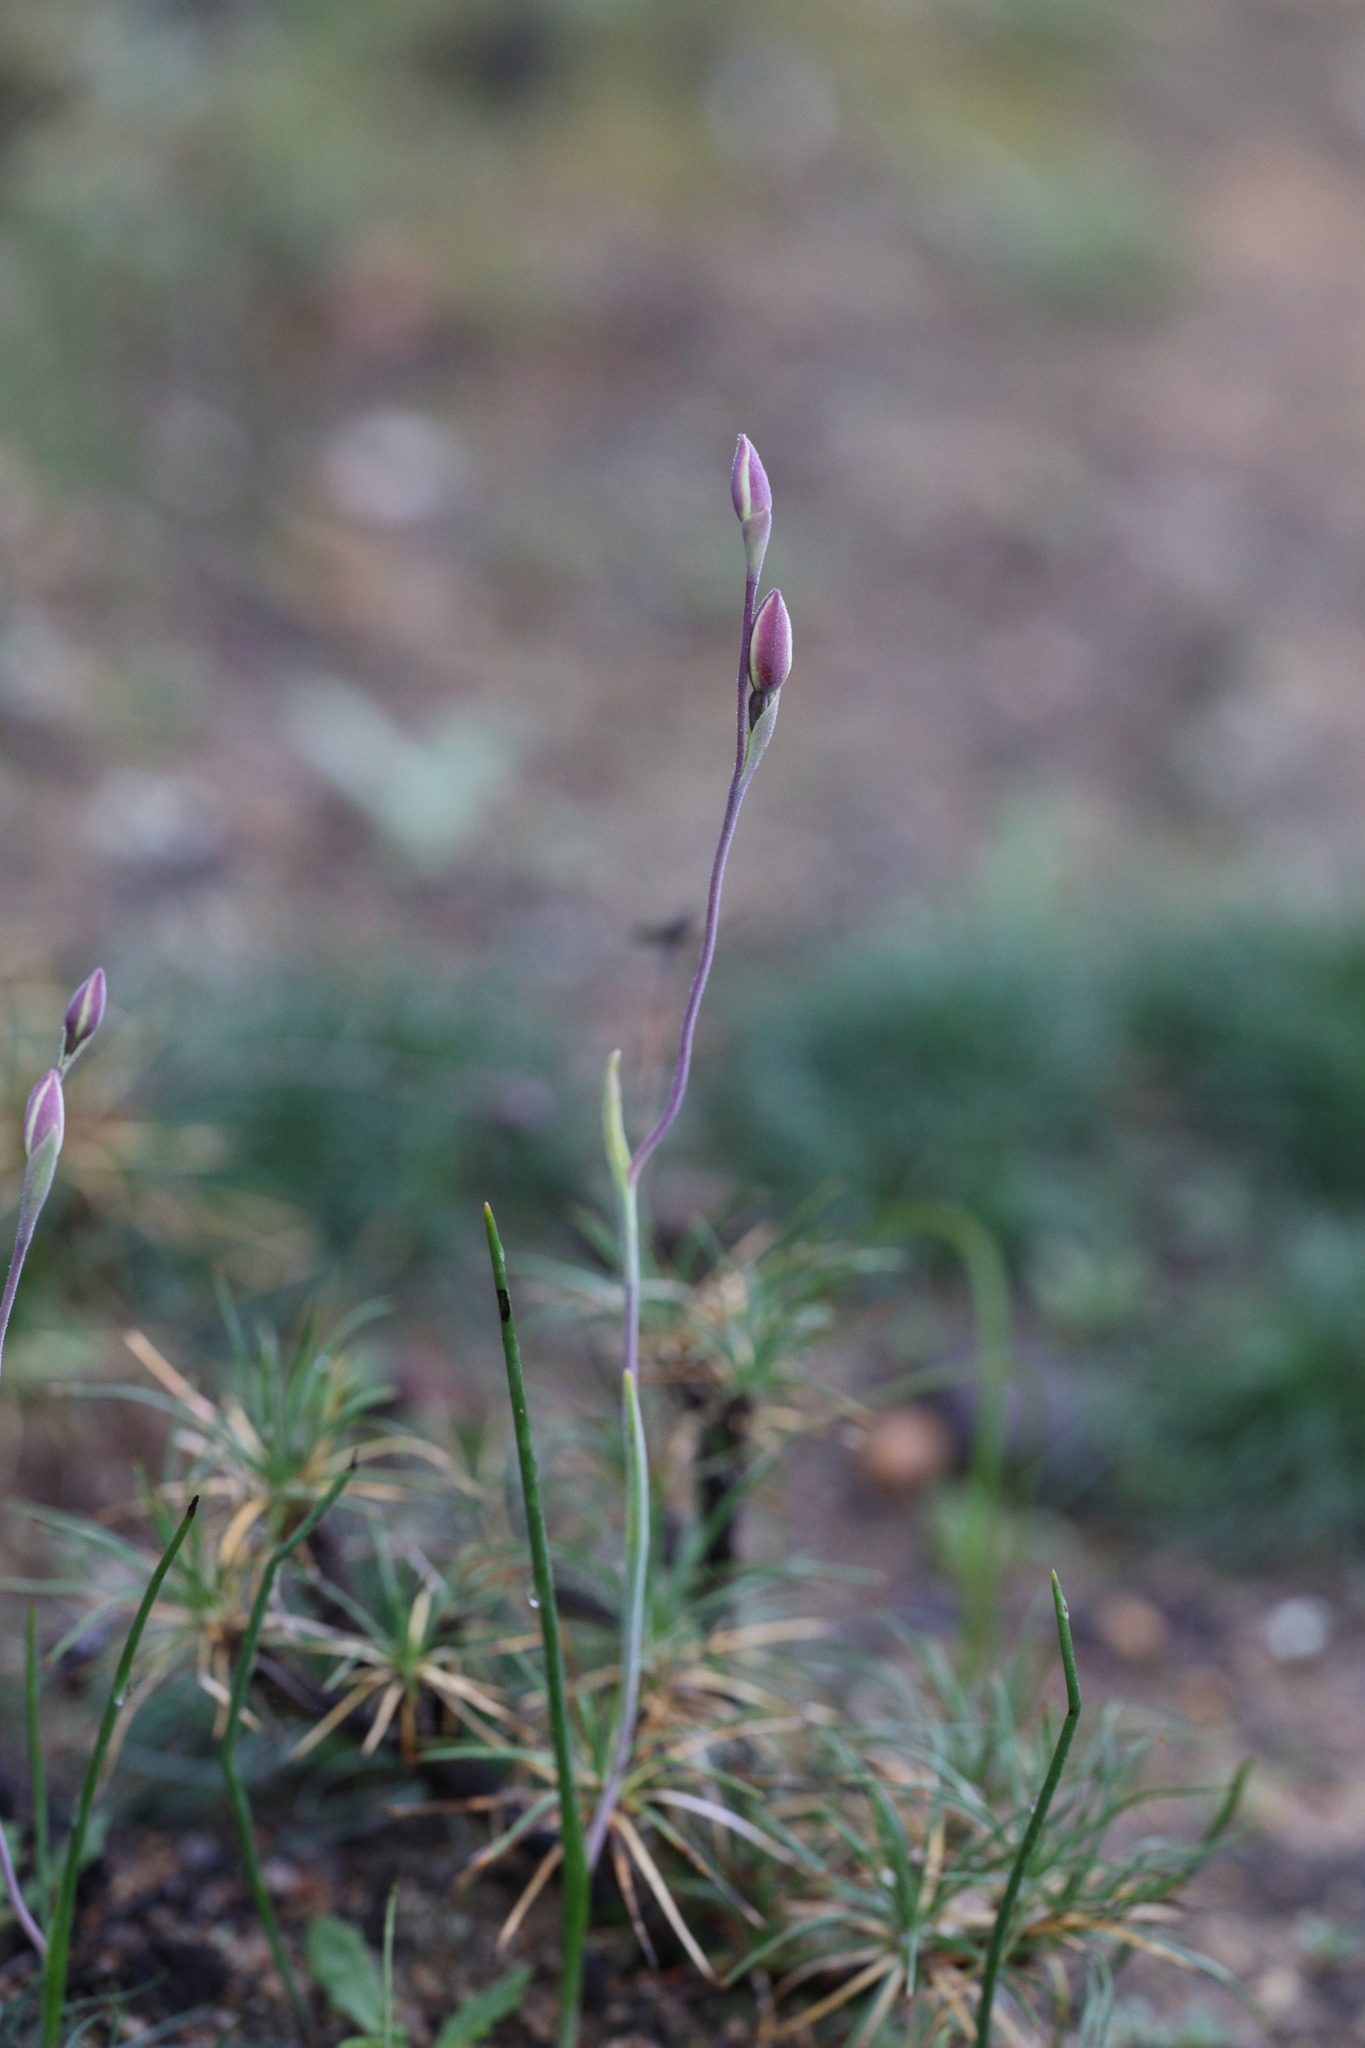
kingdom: Plantae
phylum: Tracheophyta
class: Liliopsida
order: Asparagales
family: Orchidaceae
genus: Thelymitra
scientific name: Thelymitra antennifera
